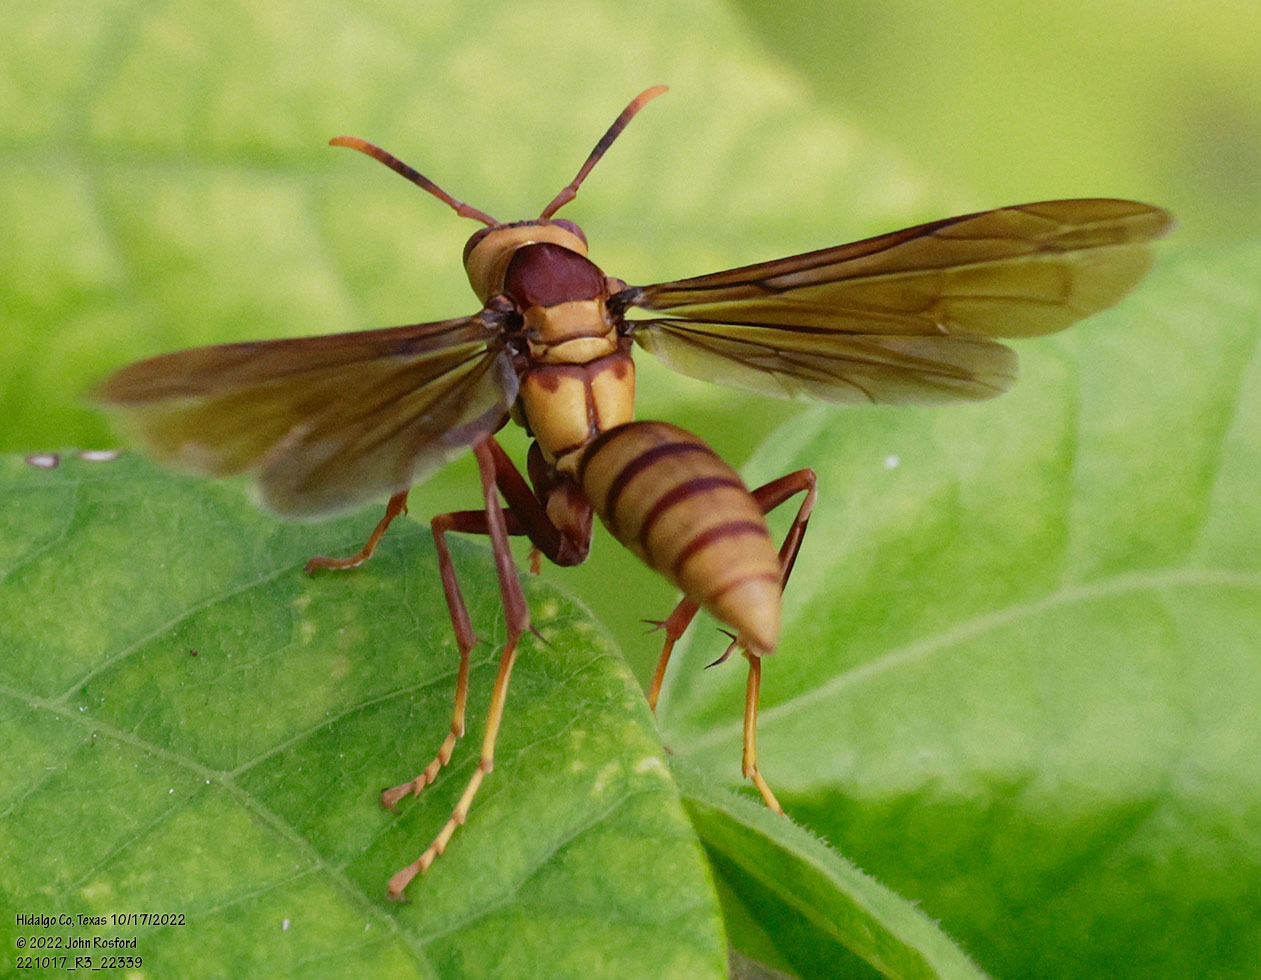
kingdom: Animalia
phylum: Arthropoda
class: Insecta
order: Hymenoptera
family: Eumenidae
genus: Polistes
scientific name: Polistes major
